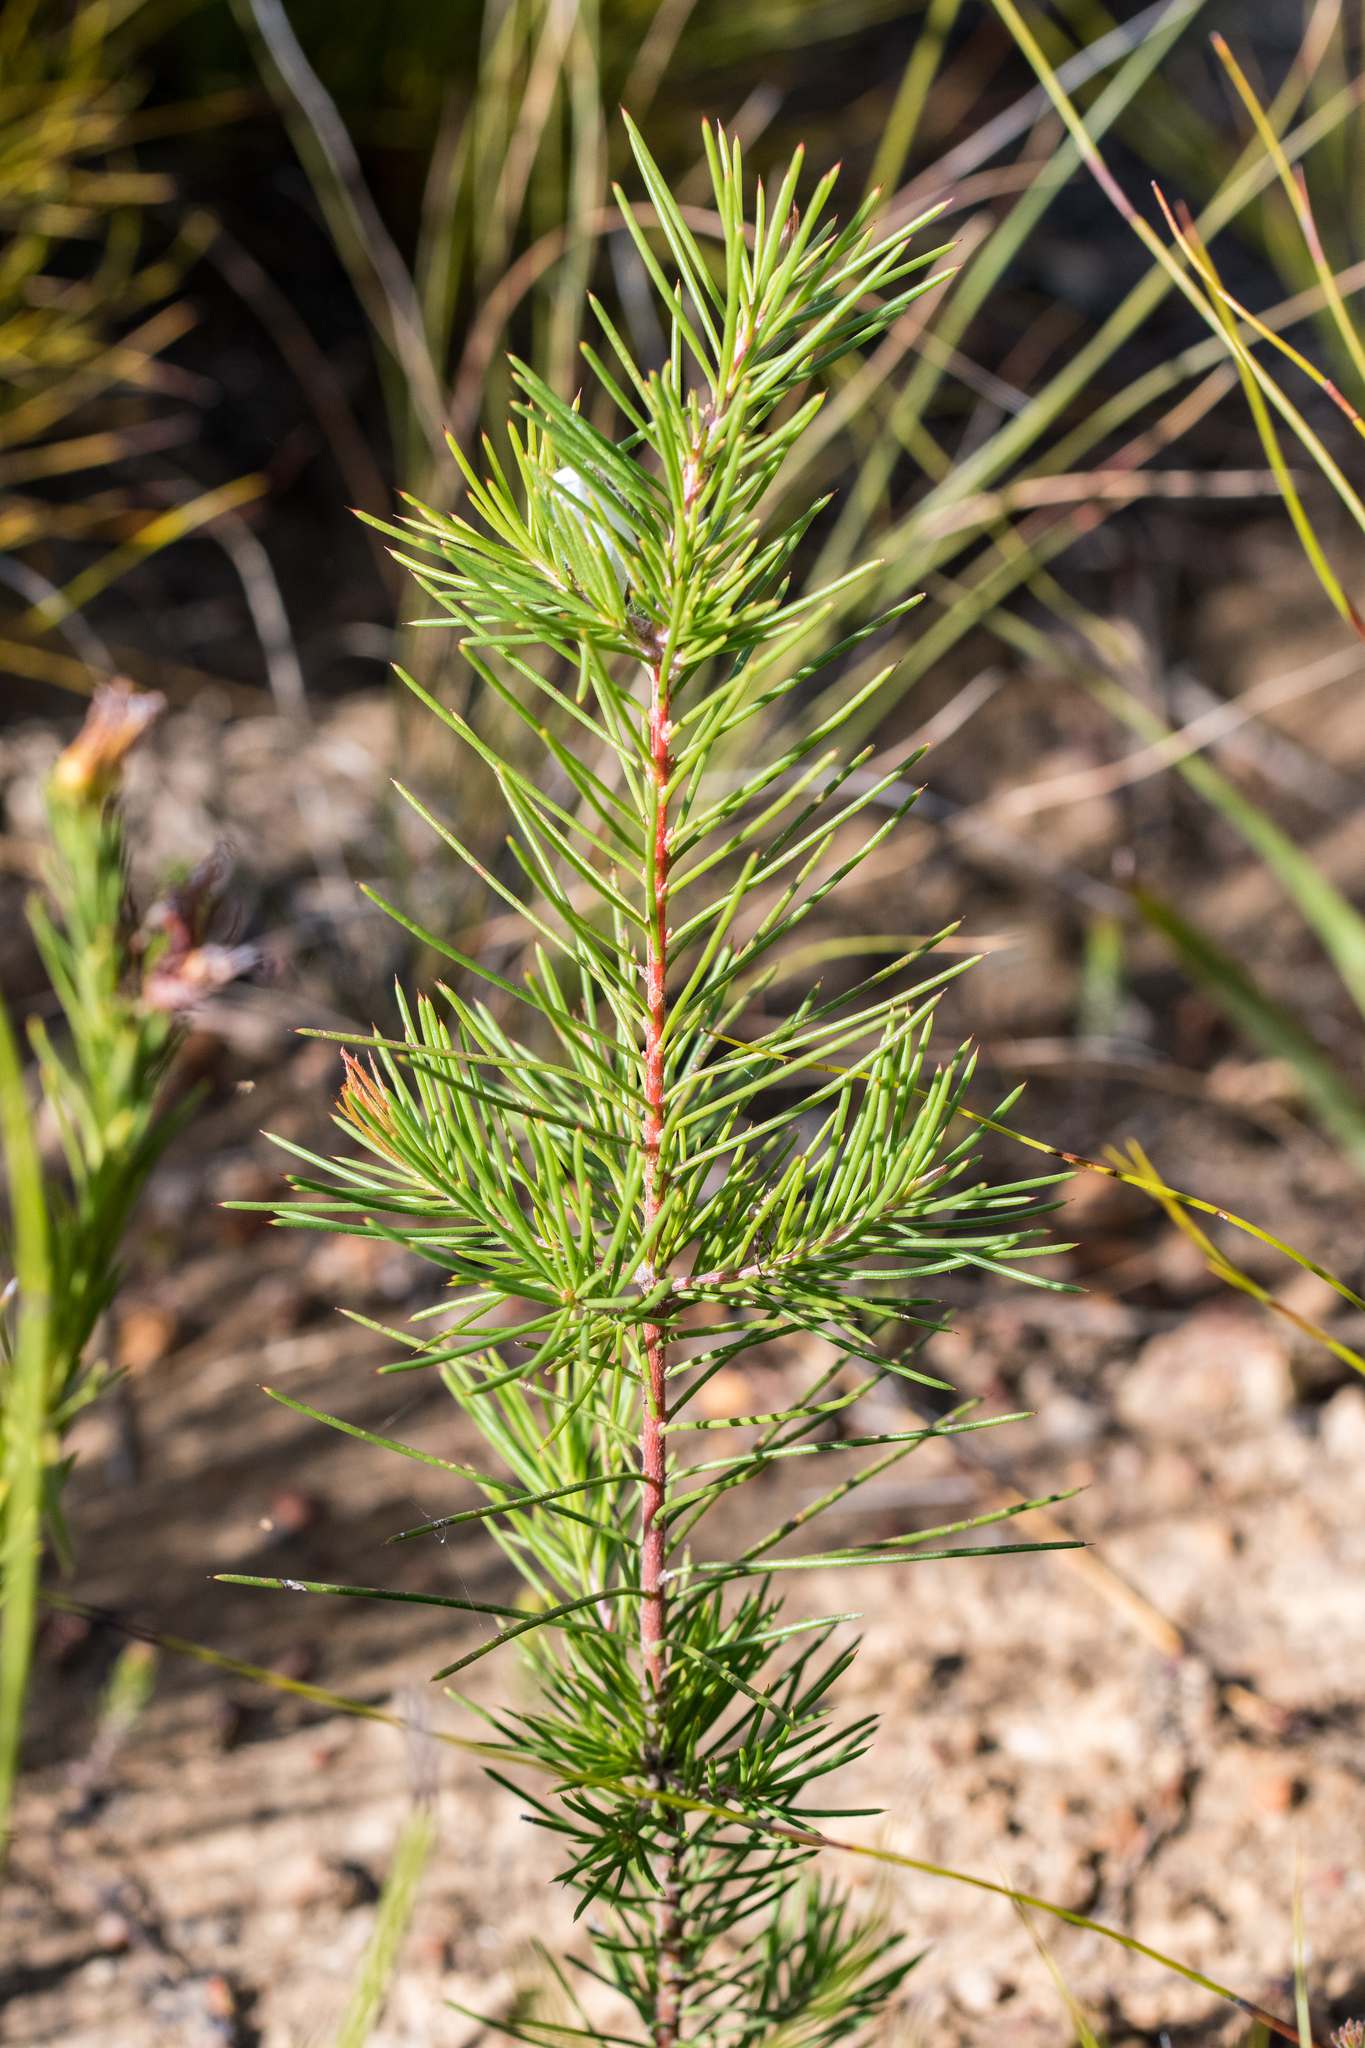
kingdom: Plantae
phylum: Tracheophyta
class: Magnoliopsida
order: Proteales
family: Proteaceae
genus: Hakea
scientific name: Hakea sericea
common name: Needle bush
